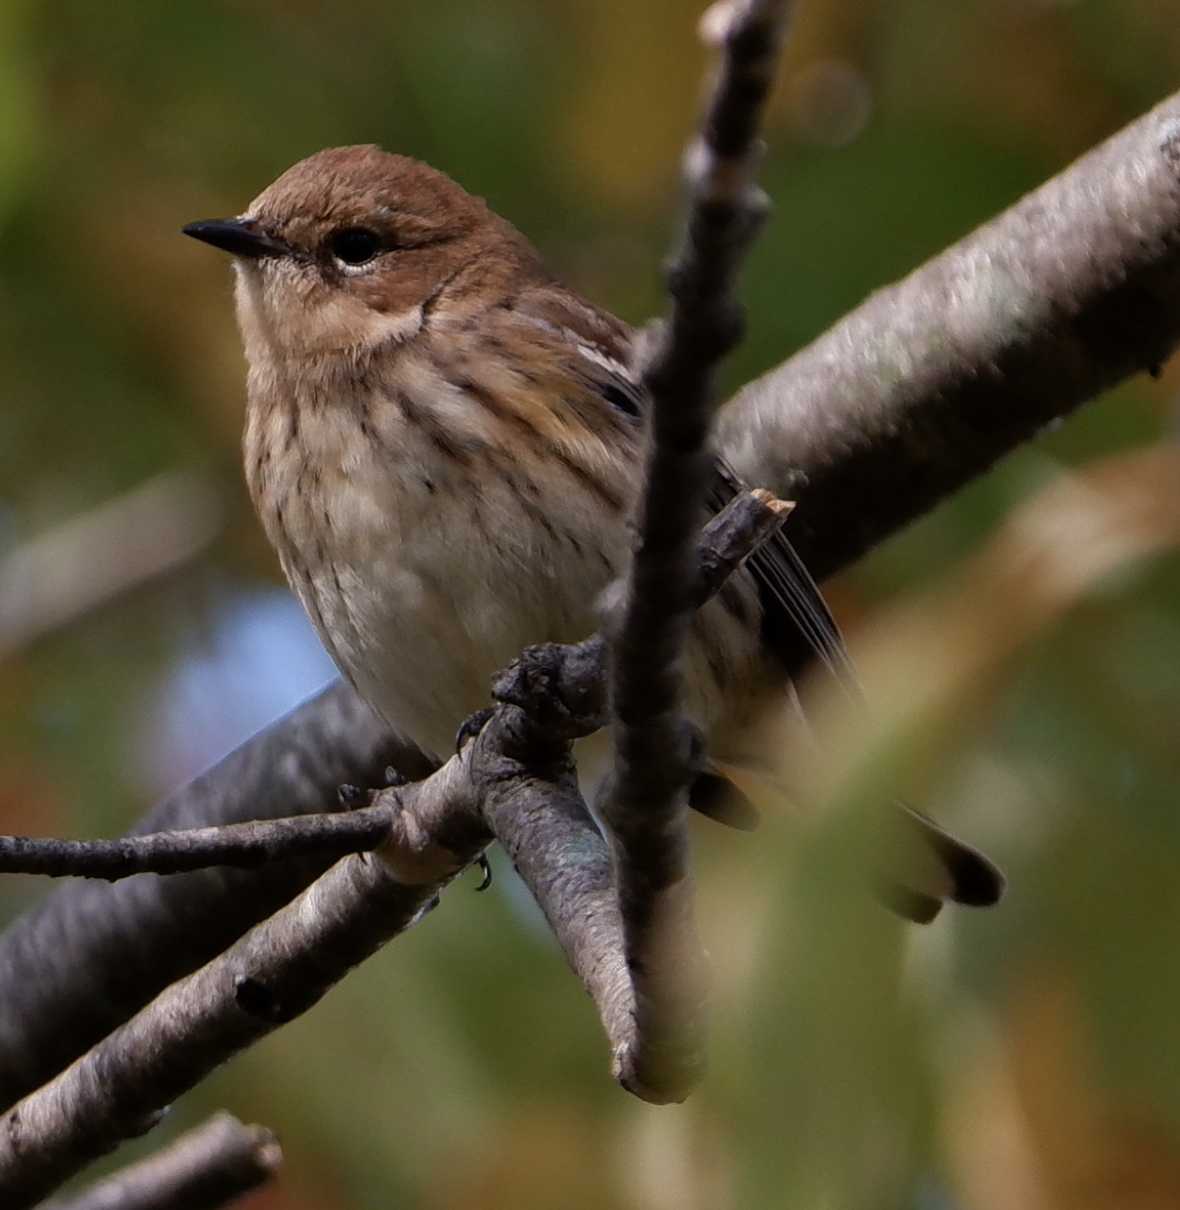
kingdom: Animalia
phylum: Chordata
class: Aves
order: Passeriformes
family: Parulidae
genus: Setophaga
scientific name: Setophaga coronata
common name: Myrtle warbler
